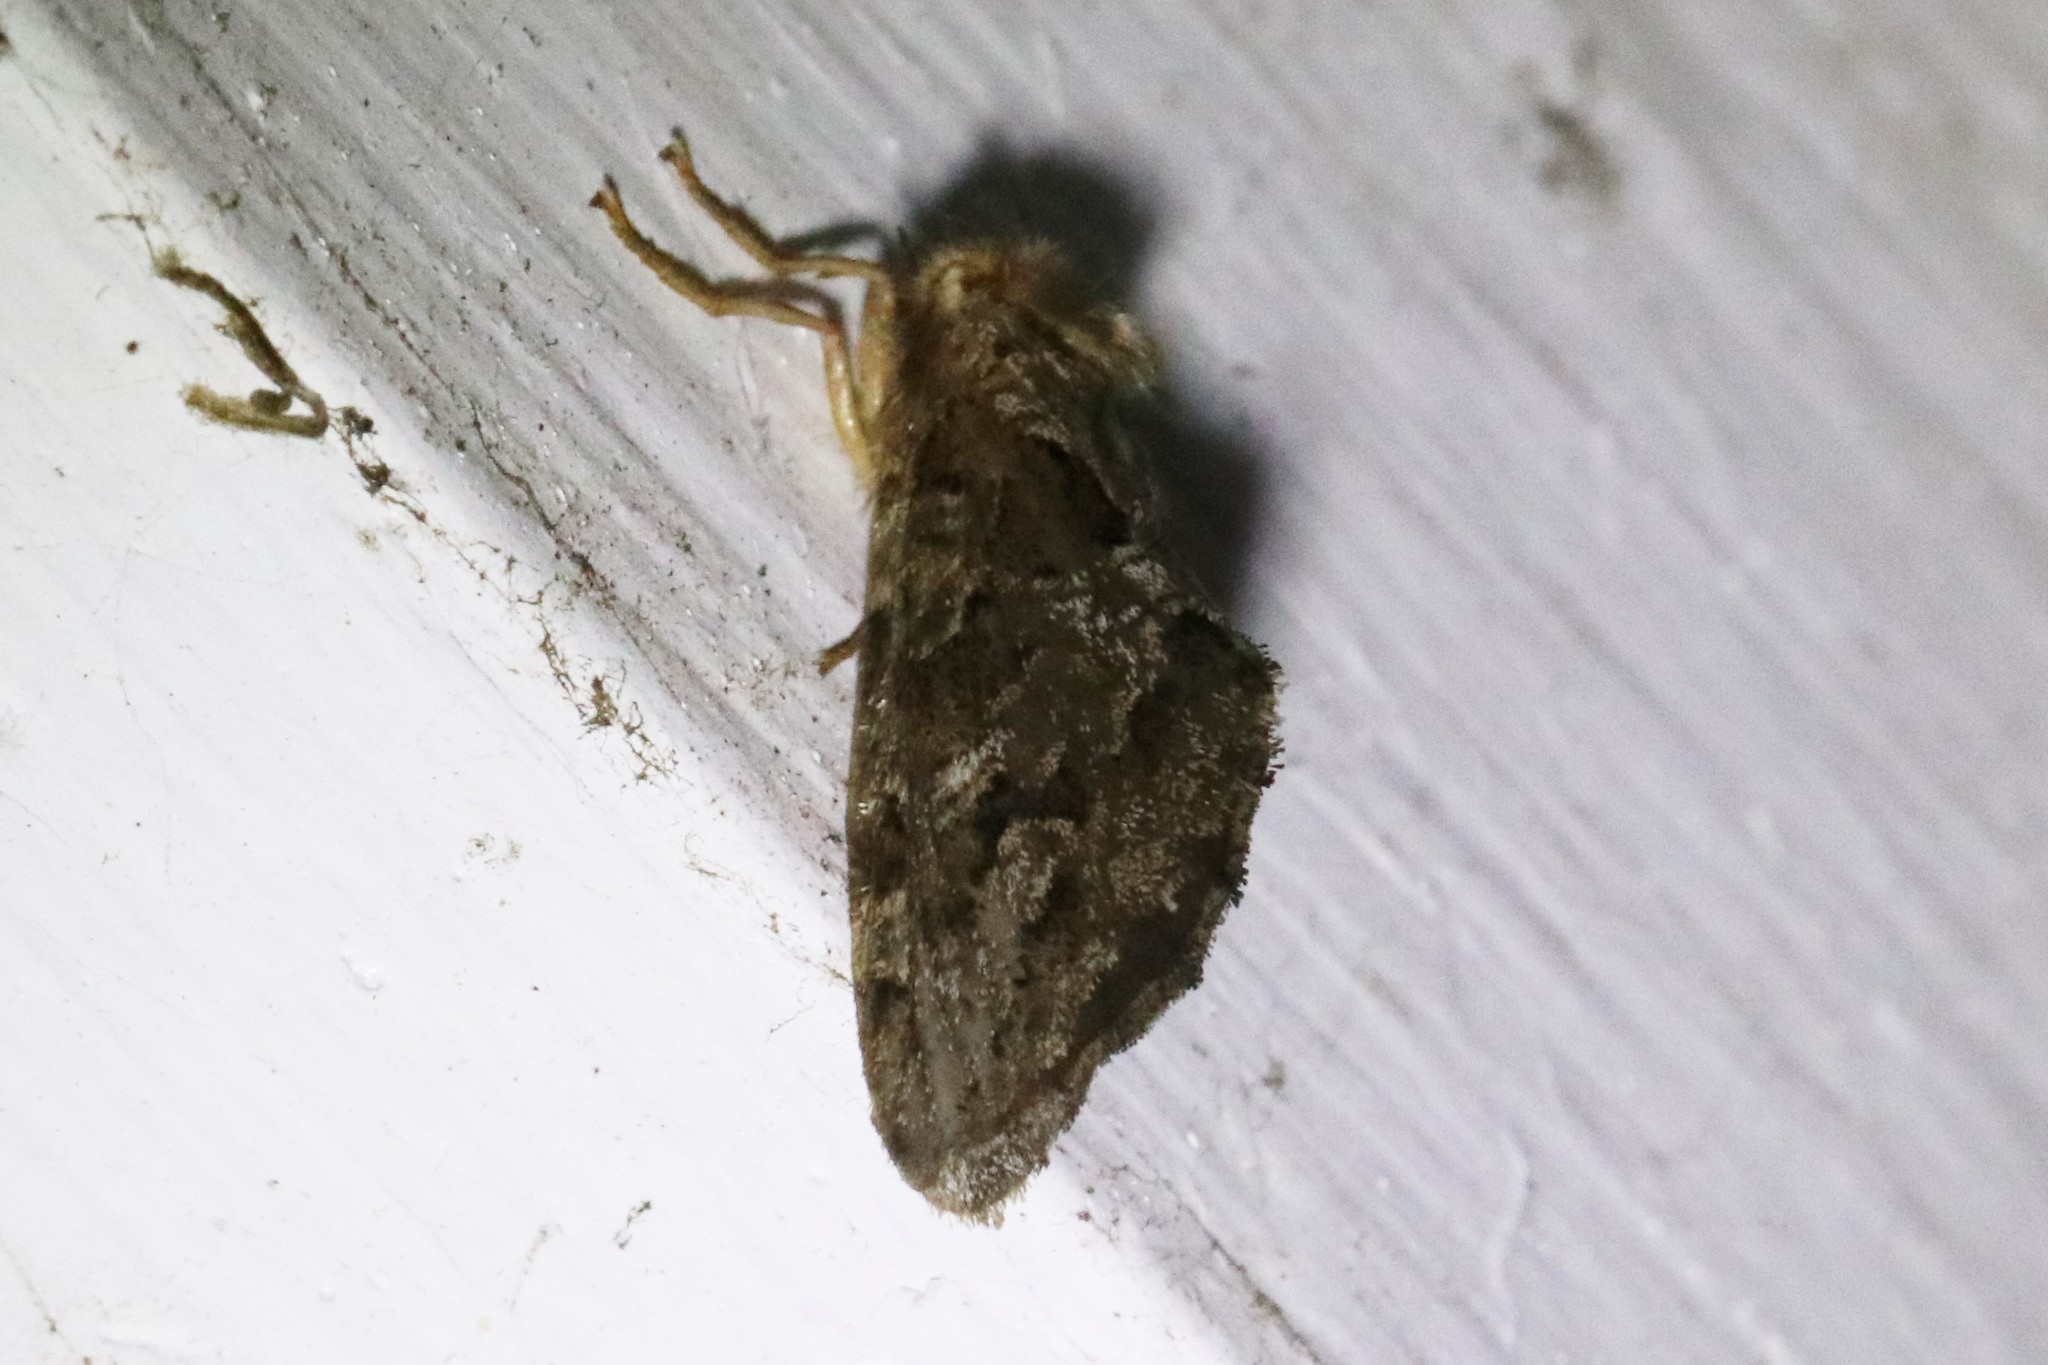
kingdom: Animalia
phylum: Arthropoda
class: Insecta
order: Lepidoptera
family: Hepialidae
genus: Korscheltellus
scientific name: Korscheltellus gracilis
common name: Conifer swift moth
